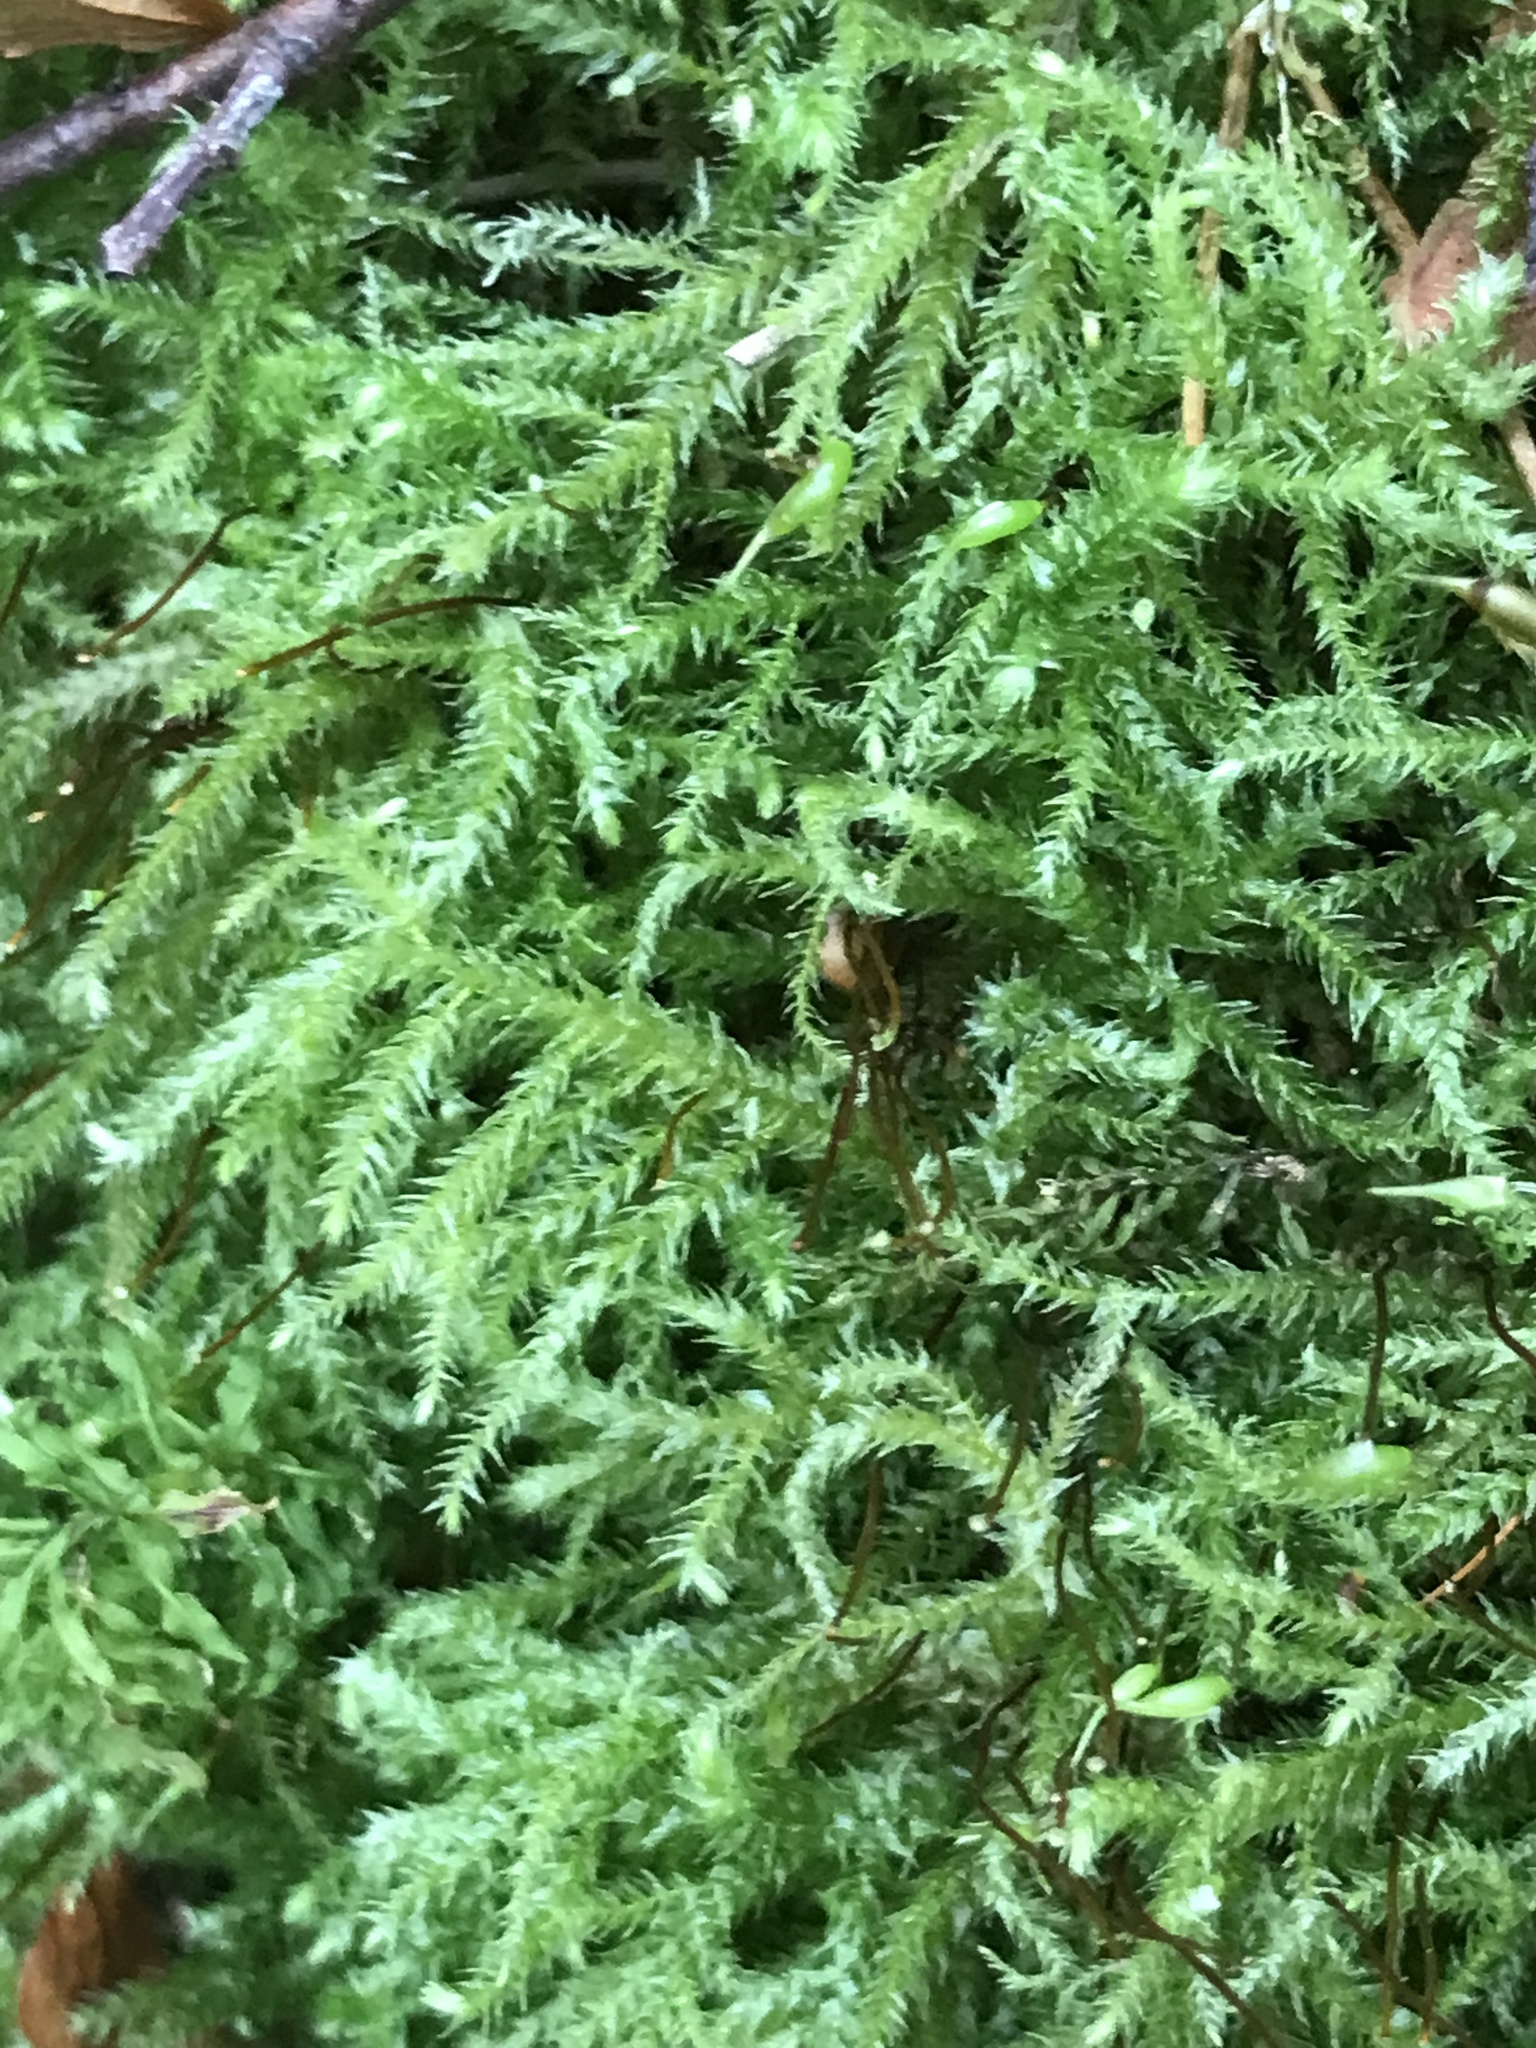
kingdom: Plantae
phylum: Bryophyta
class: Bryopsida
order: Hypnales
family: Brachytheciaceae
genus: Kindbergia
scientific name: Kindbergia praelonga
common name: Slender beaked moss
